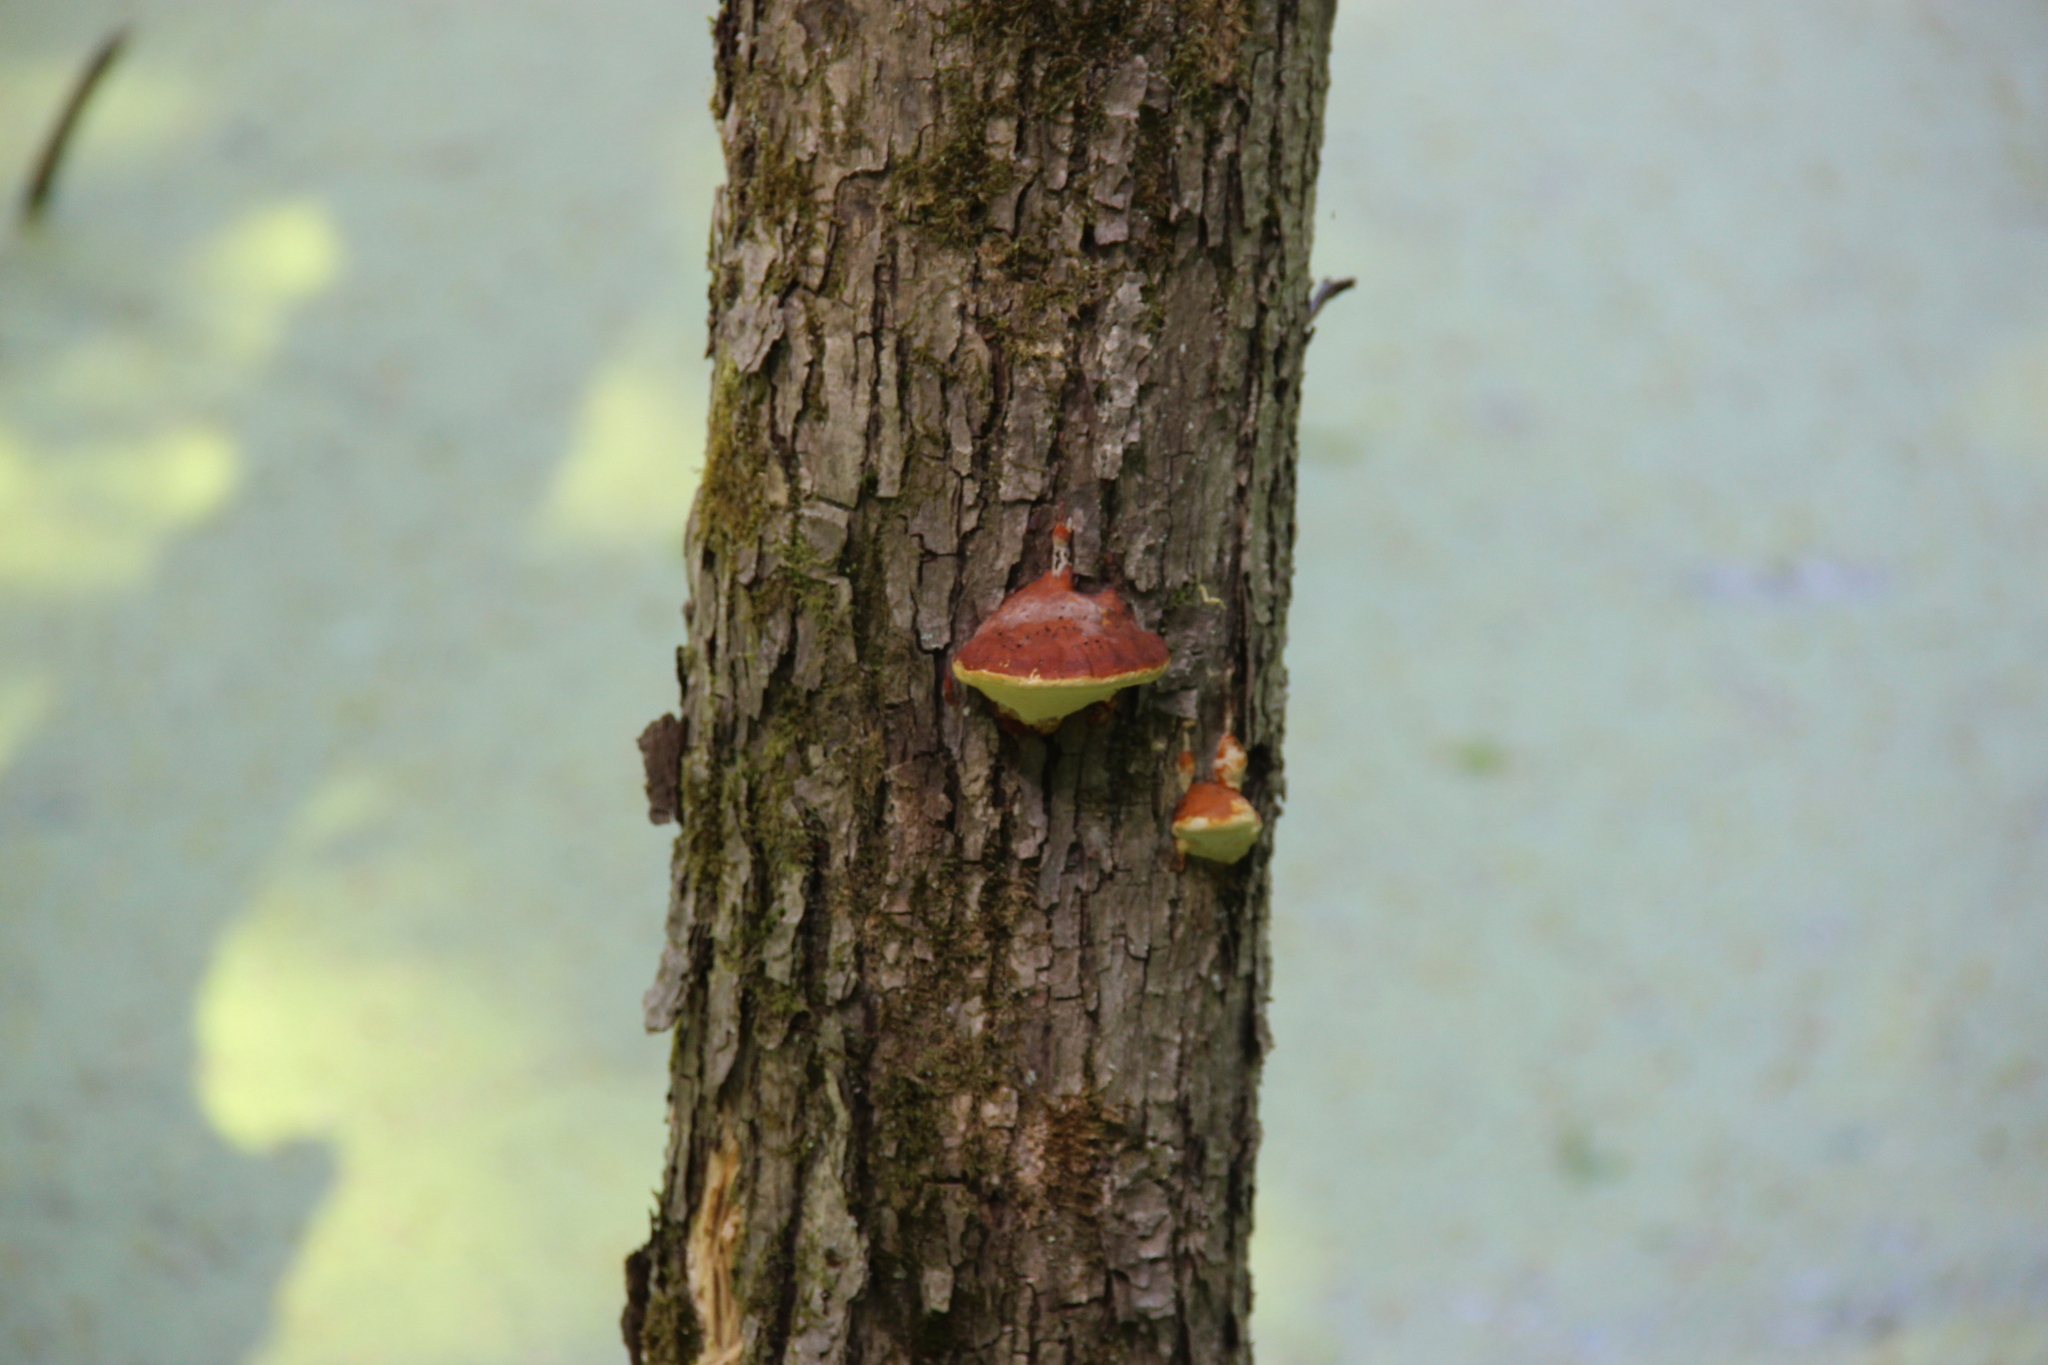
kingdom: Fungi
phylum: Basidiomycota
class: Agaricomycetes
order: Polyporales
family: Fomitopsidaceae
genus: Fomitopsis
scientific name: Fomitopsis pinicola
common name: Red-belted bracket
